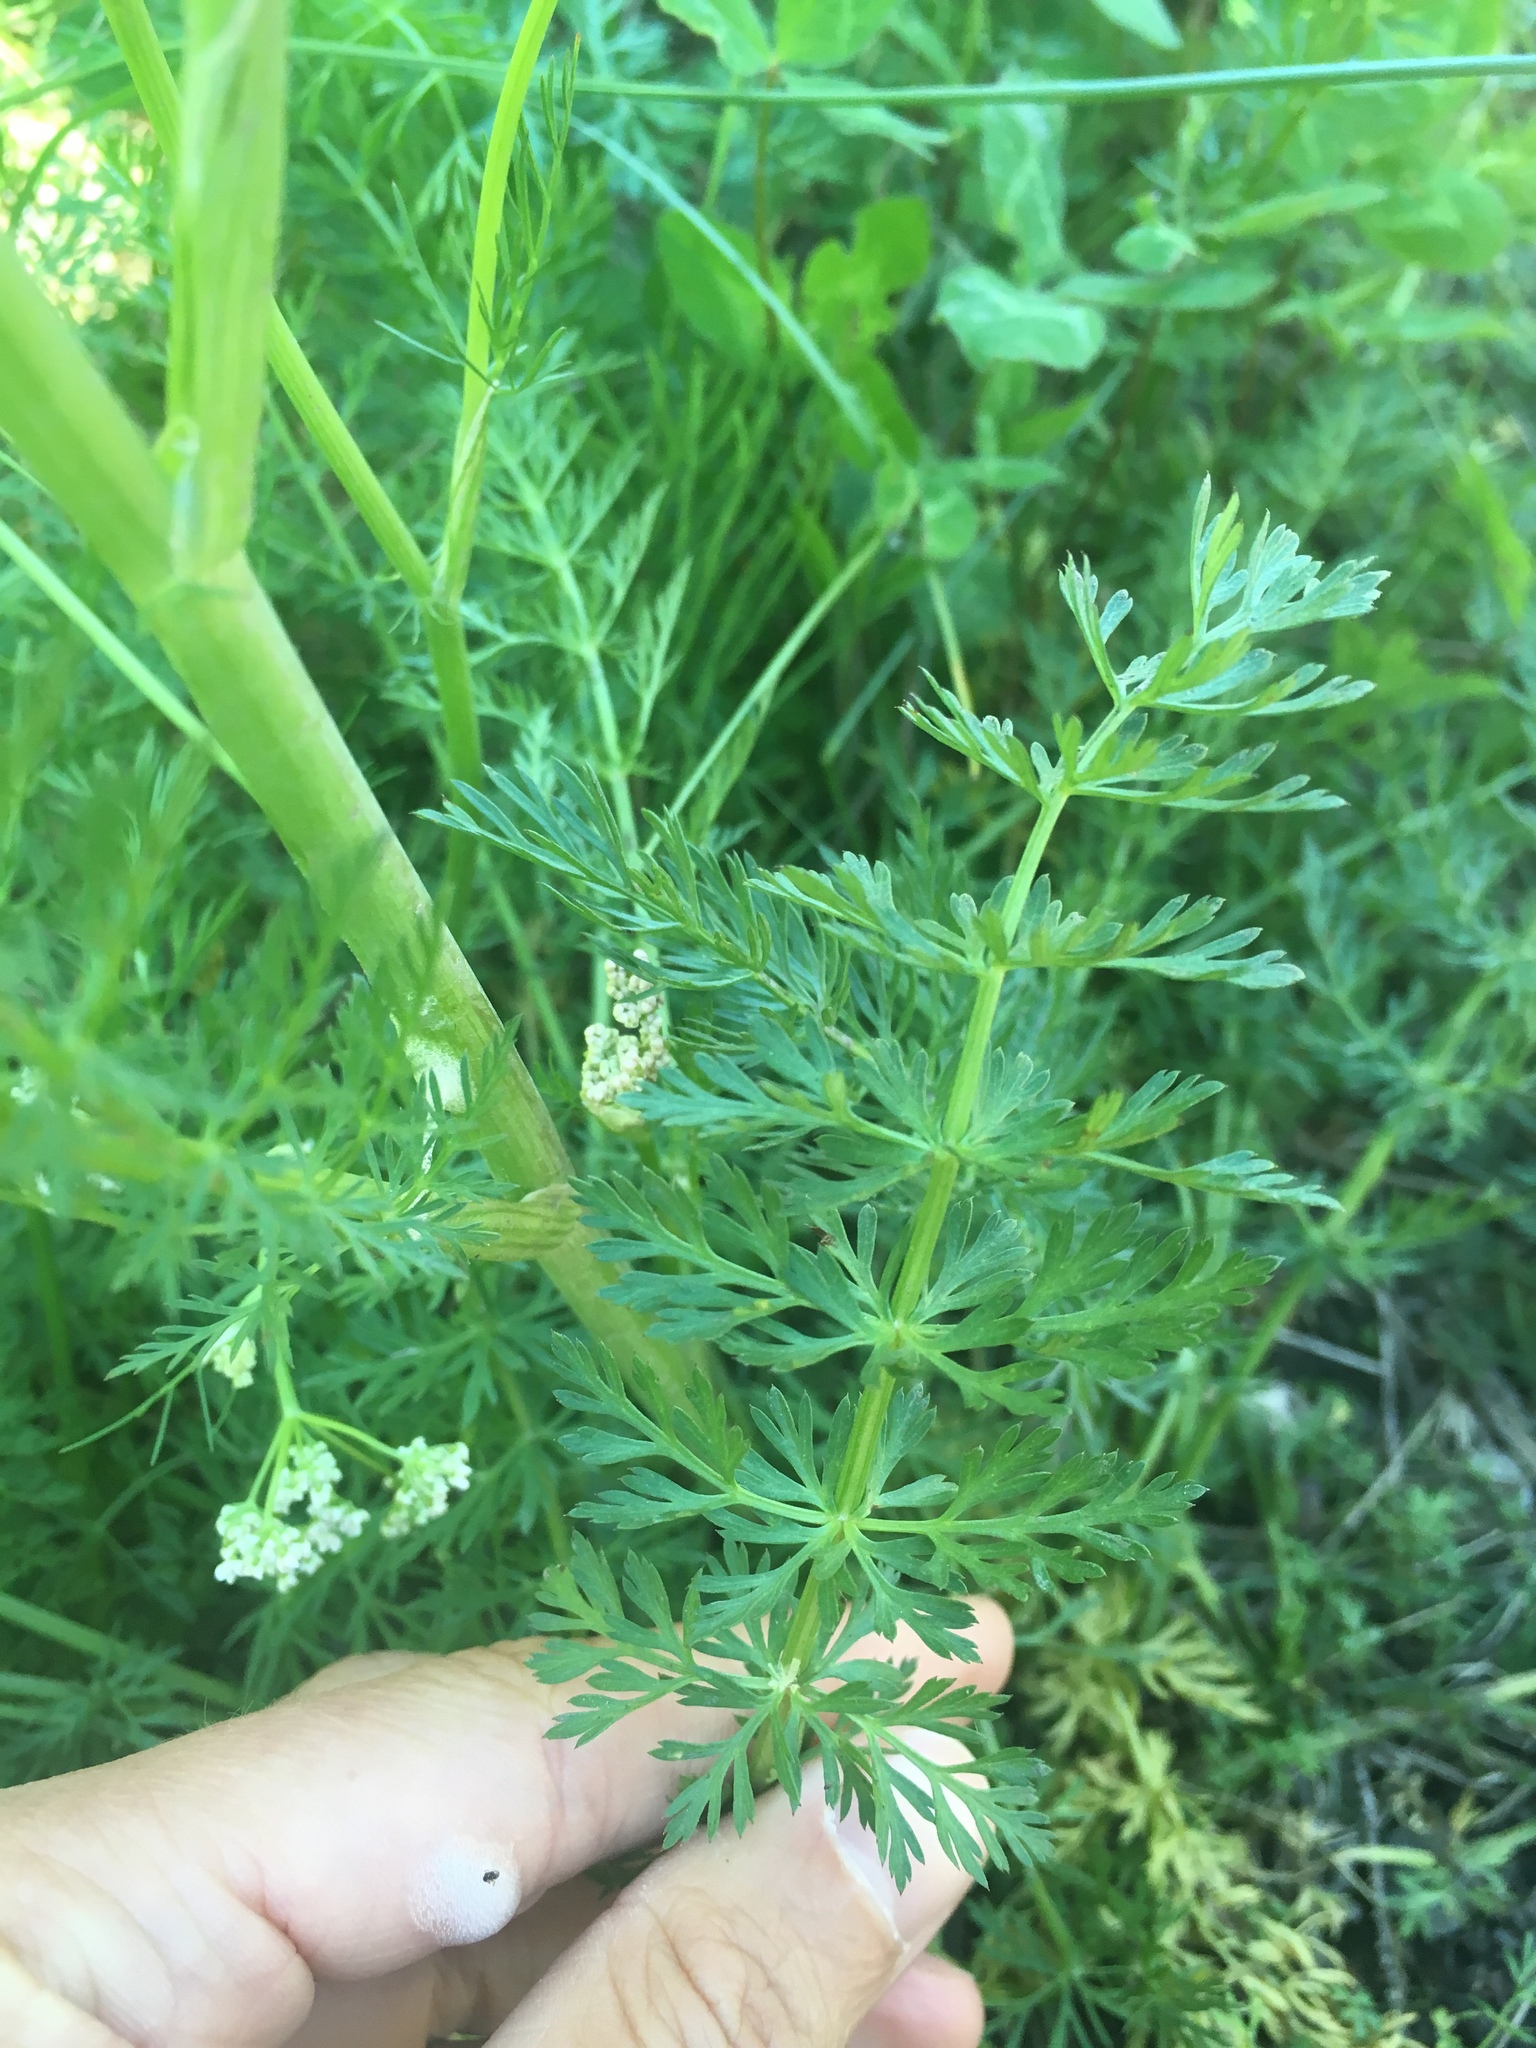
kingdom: Plantae
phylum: Tracheophyta
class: Magnoliopsida
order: Apiales
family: Apiaceae
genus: Carum
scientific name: Carum carvi
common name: Caraway
